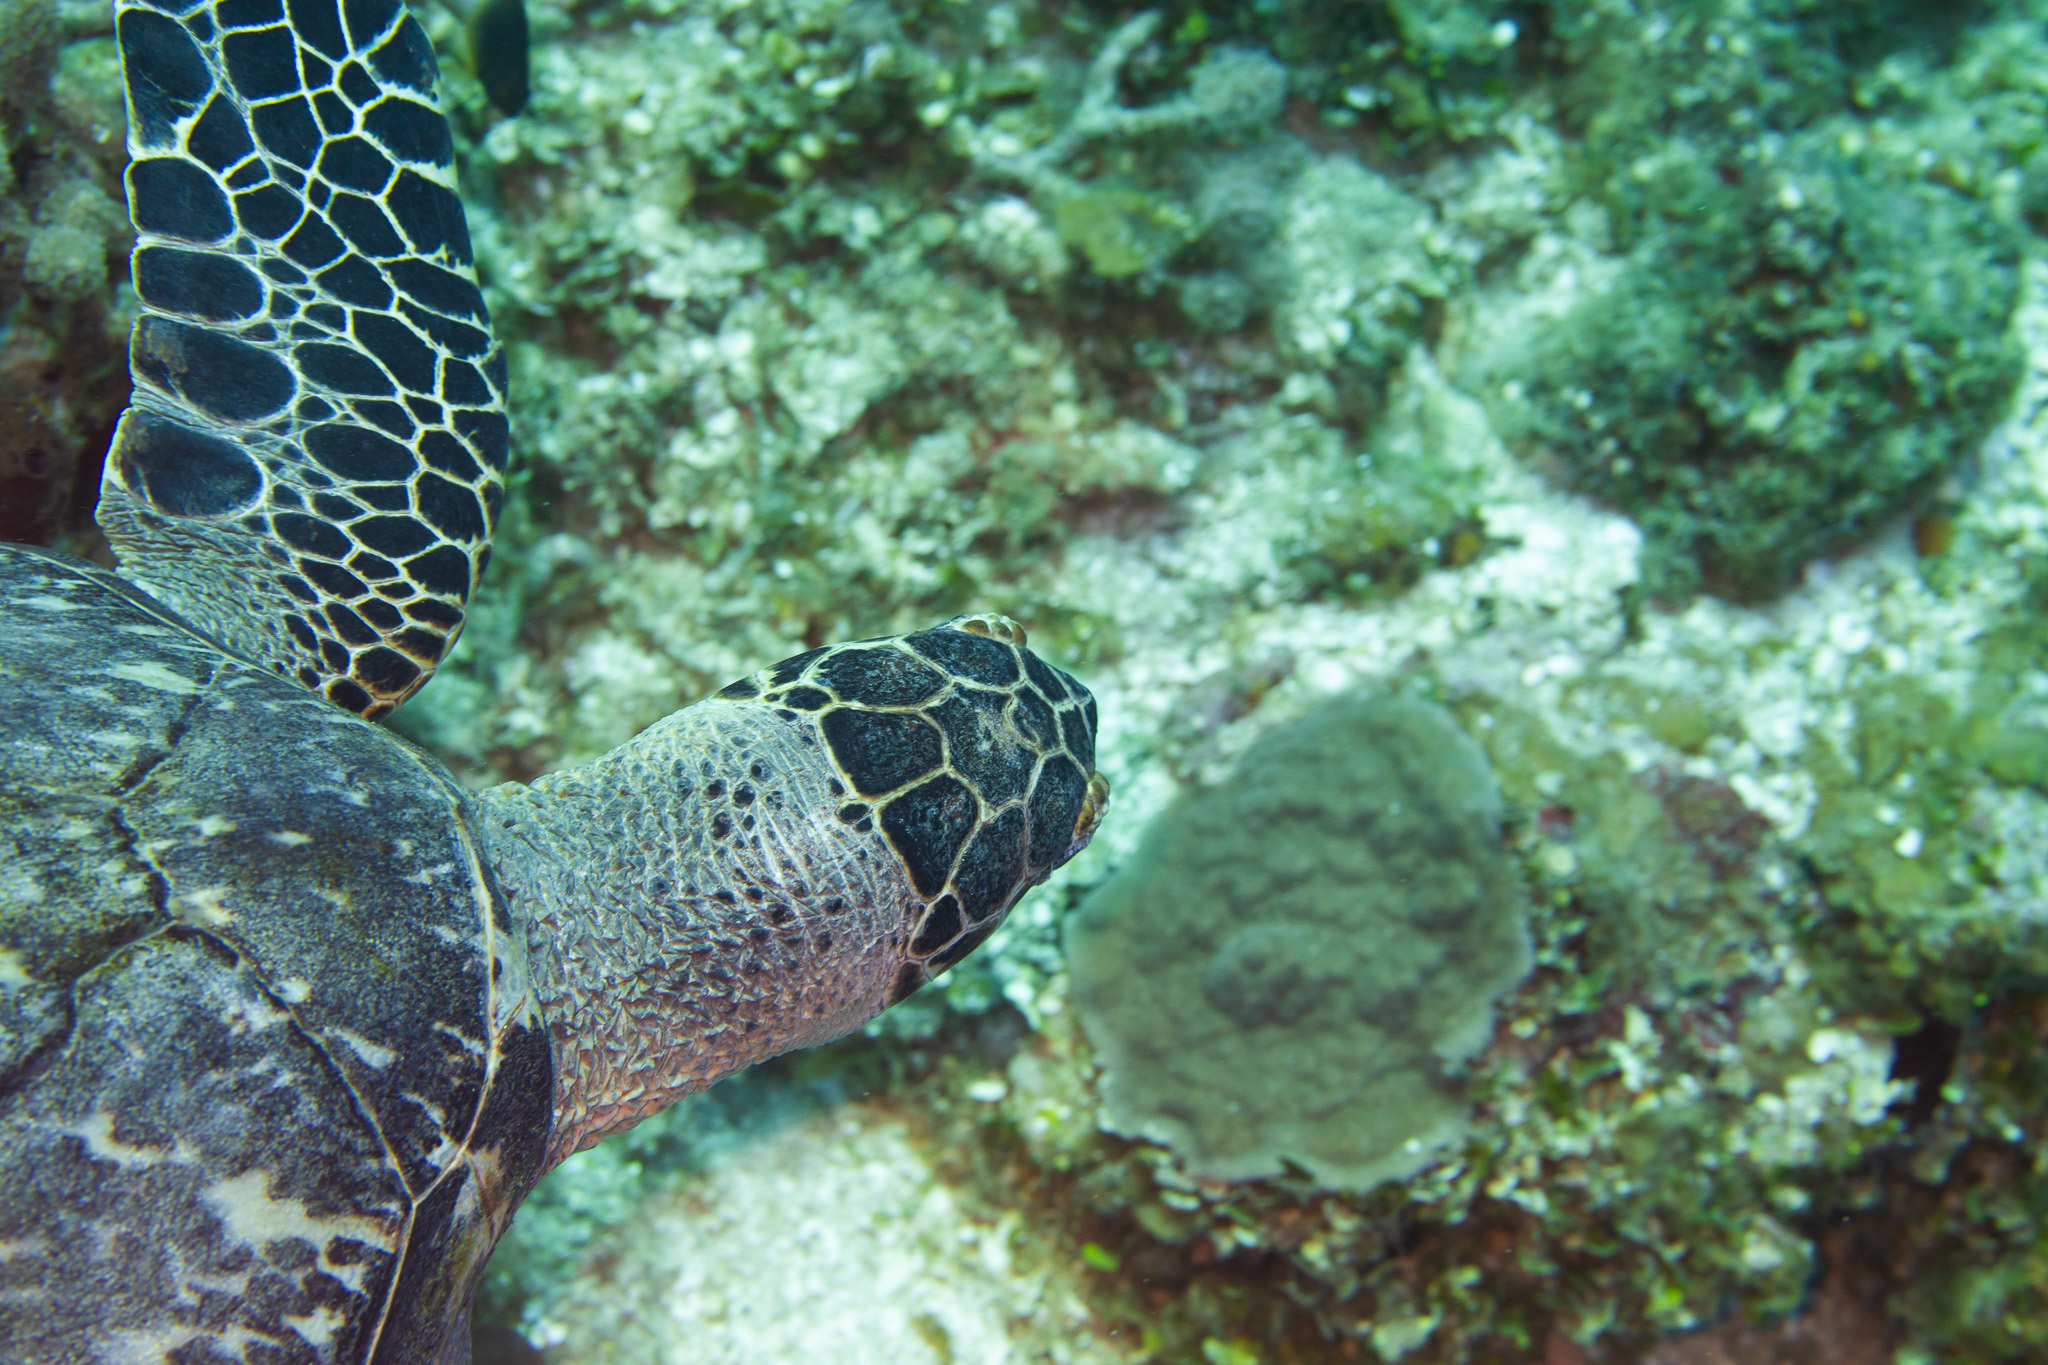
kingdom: Animalia
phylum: Chordata
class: Testudines
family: Cheloniidae
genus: Eretmochelys
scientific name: Eretmochelys imbricata
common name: Hawksbill turtle
